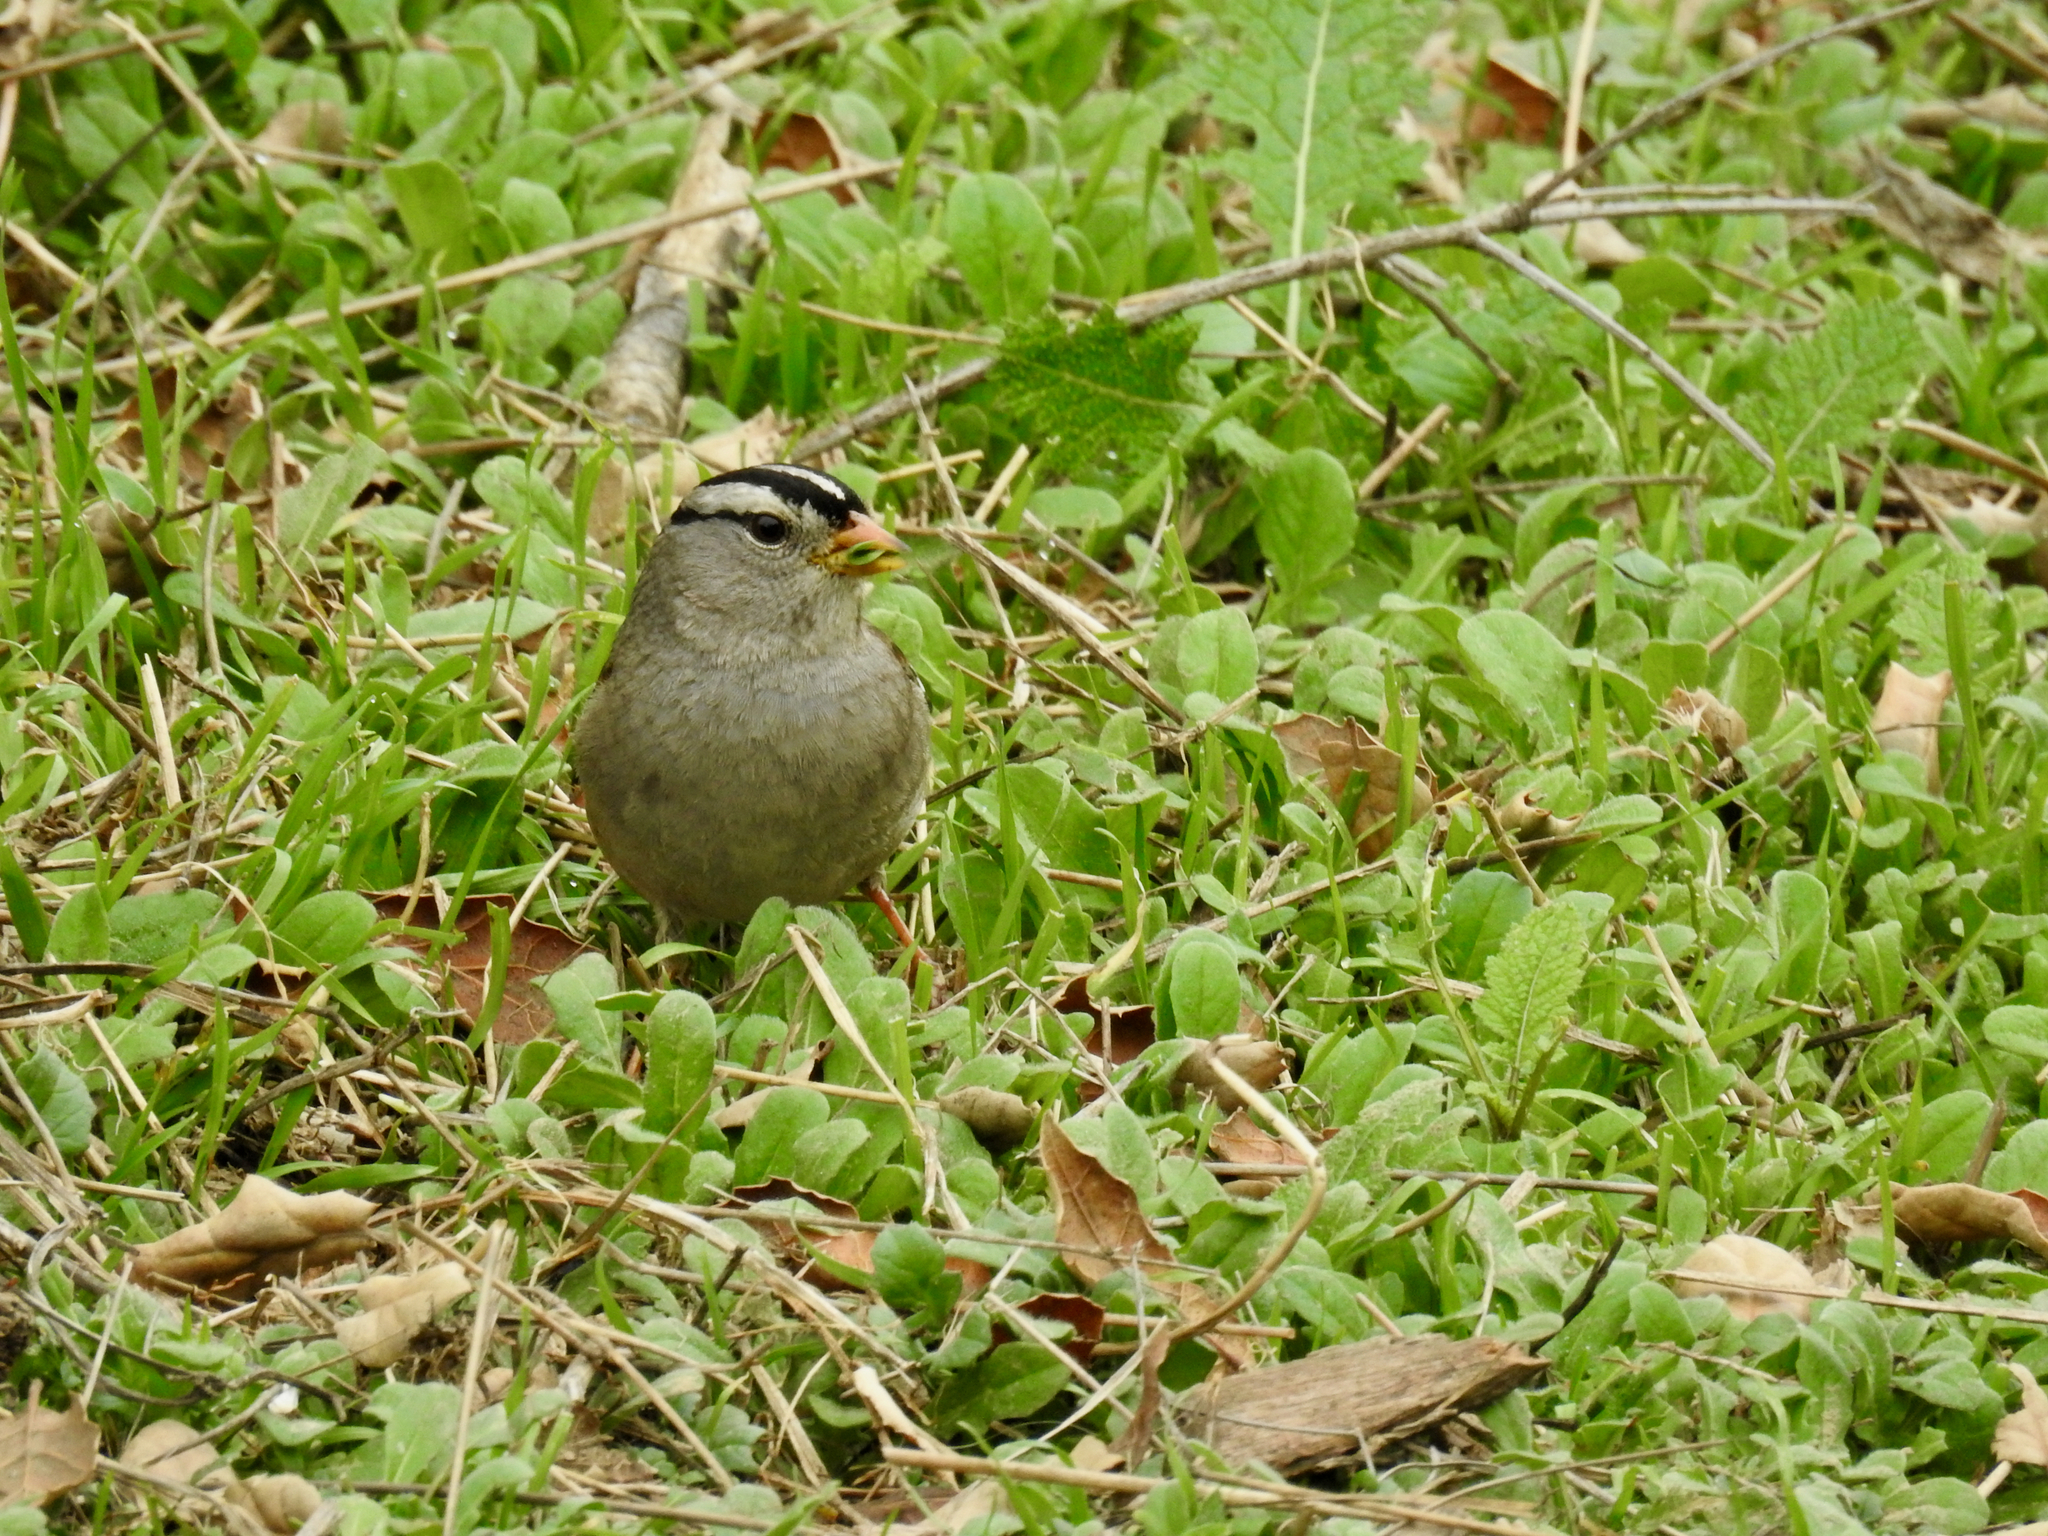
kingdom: Animalia
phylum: Chordata
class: Aves
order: Passeriformes
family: Passerellidae
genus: Zonotrichia
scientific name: Zonotrichia leucophrys
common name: White-crowned sparrow
